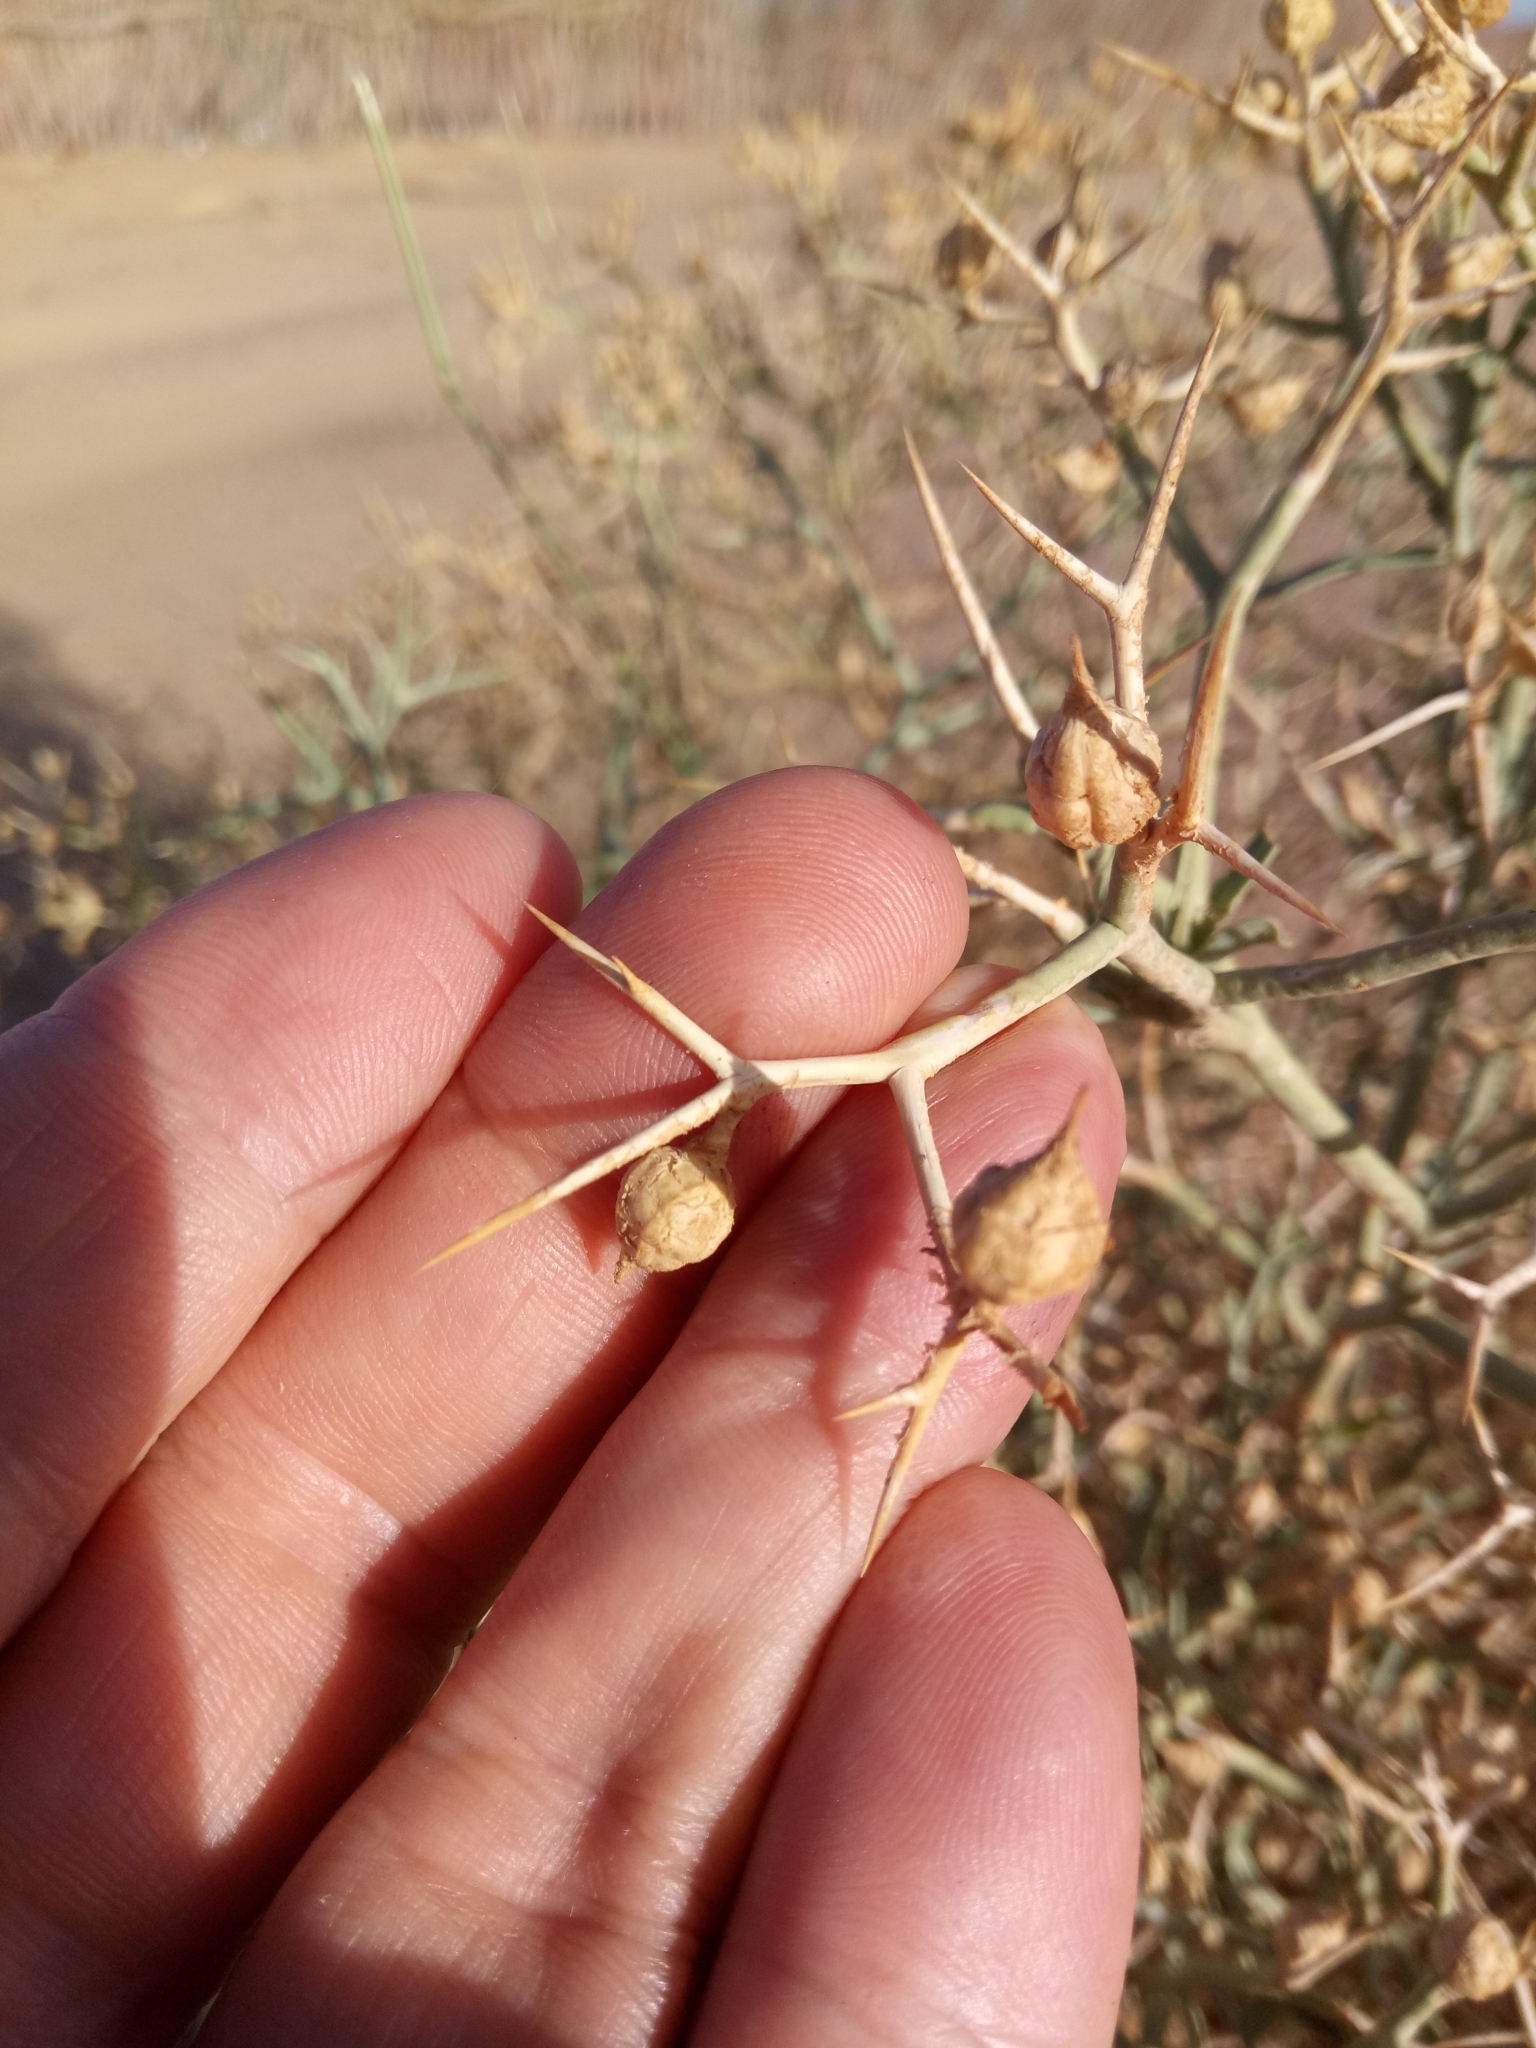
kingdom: Plantae
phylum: Tracheophyta
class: Magnoliopsida
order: Brassicales
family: Brassicaceae
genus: Zilla
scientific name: Zilla spinosa
